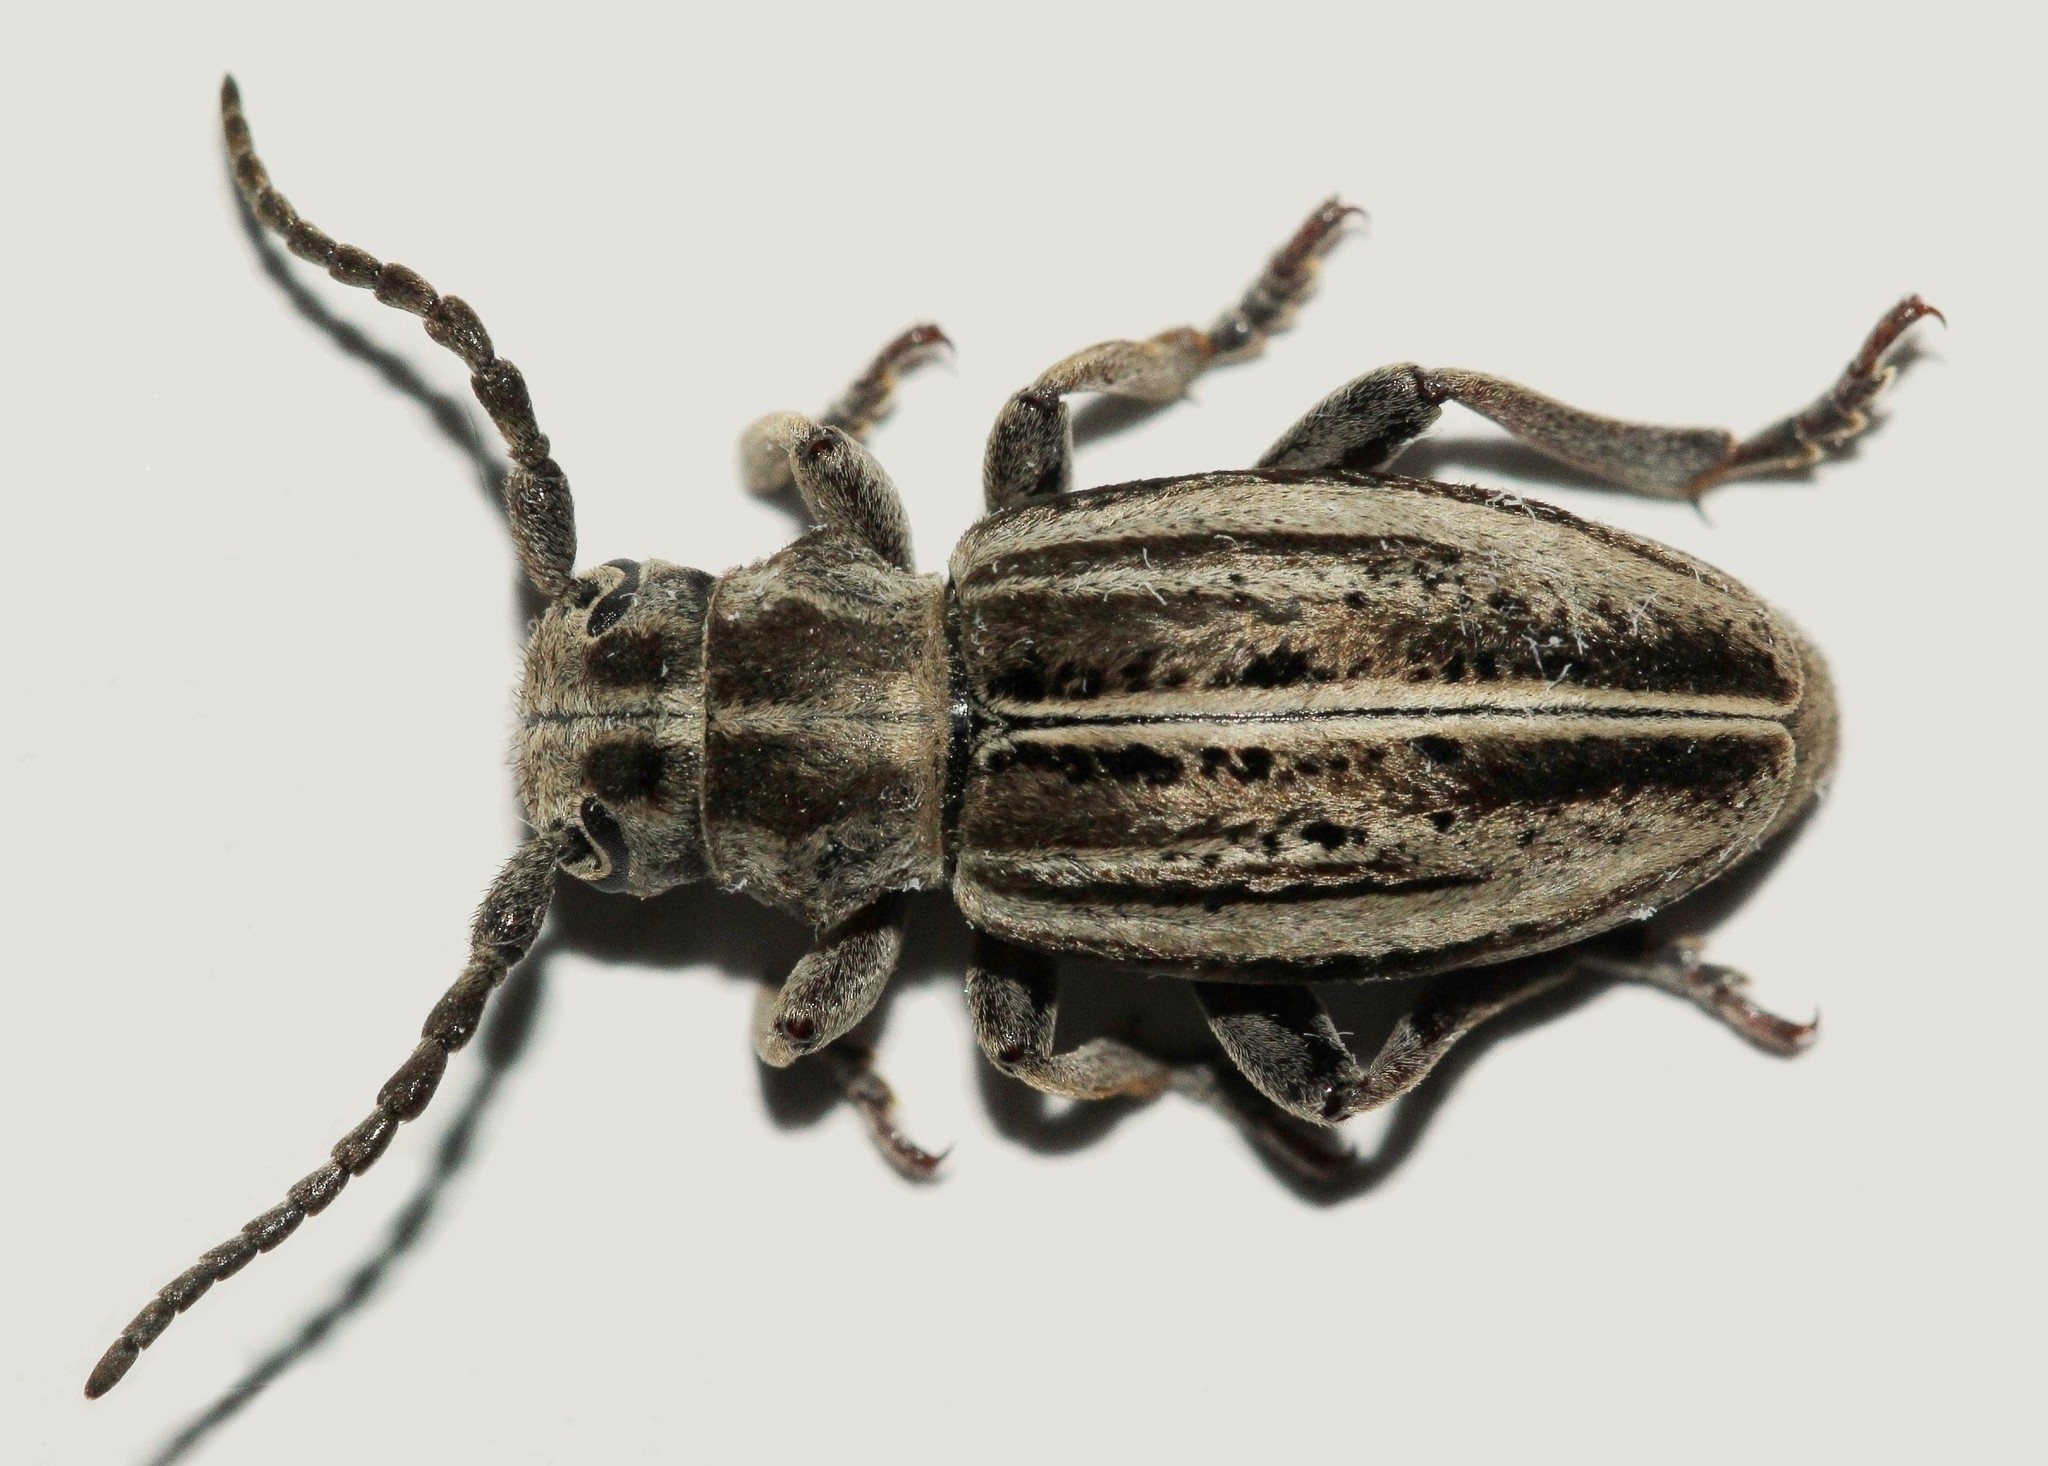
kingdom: Animalia
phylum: Arthropoda
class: Insecta
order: Coleoptera
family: Cerambycidae
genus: Dorcadion
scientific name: Dorcadion sareptanum
